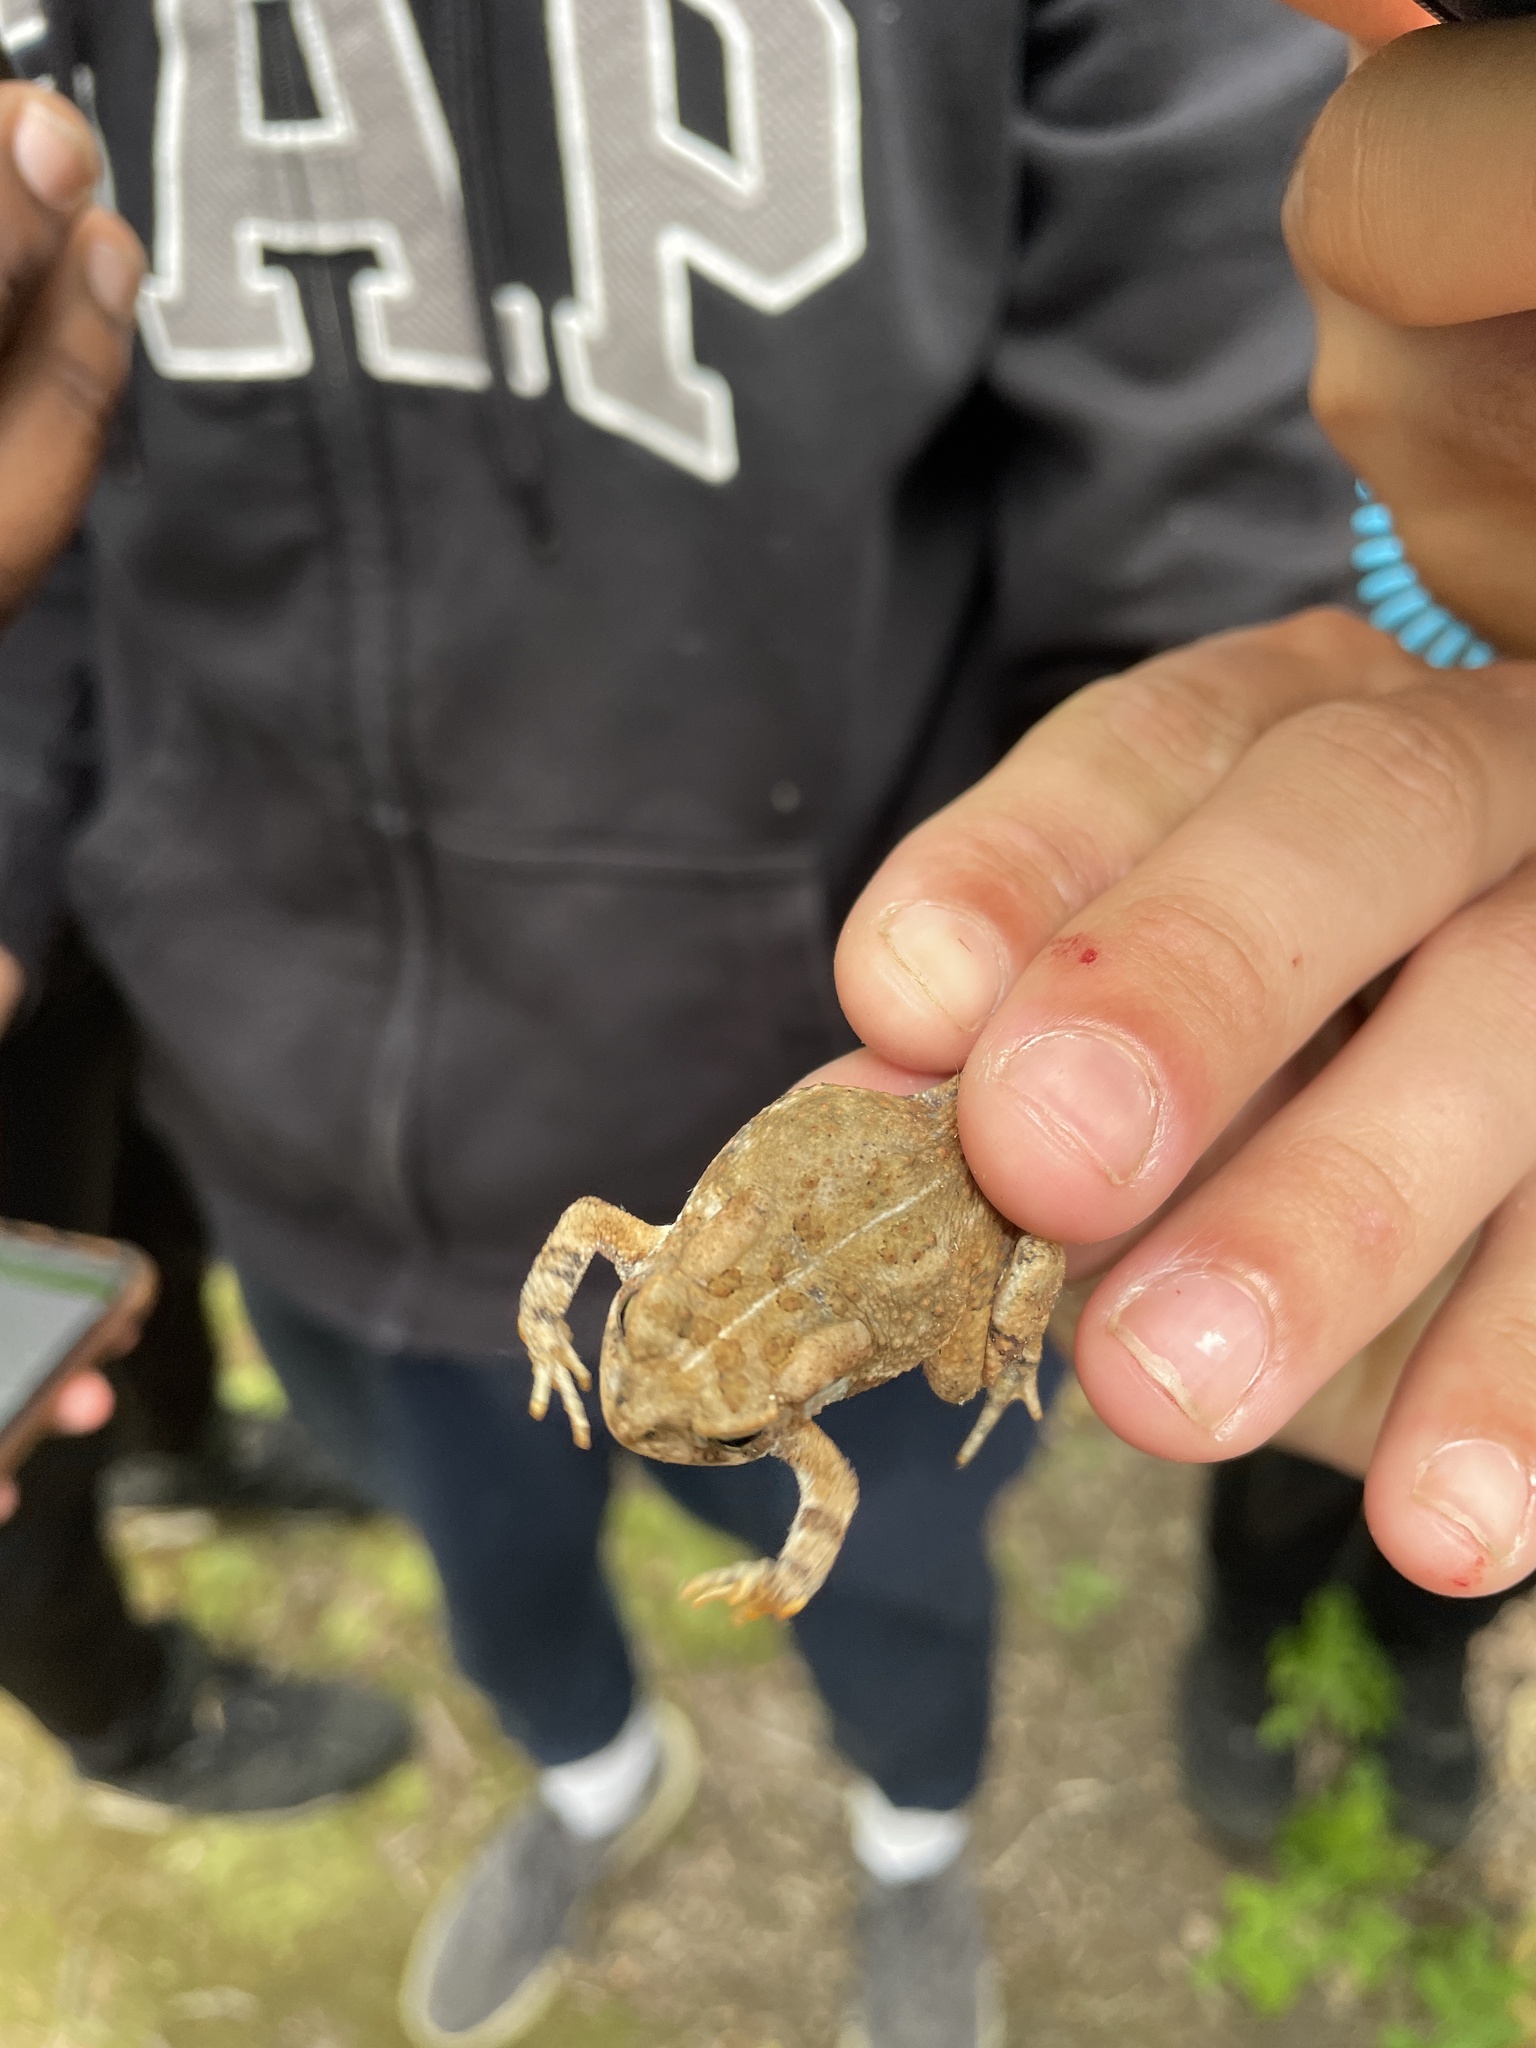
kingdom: Animalia
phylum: Chordata
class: Amphibia
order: Anura
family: Bufonidae
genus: Anaxyrus
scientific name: Anaxyrus fowleri
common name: Fowler's toad
